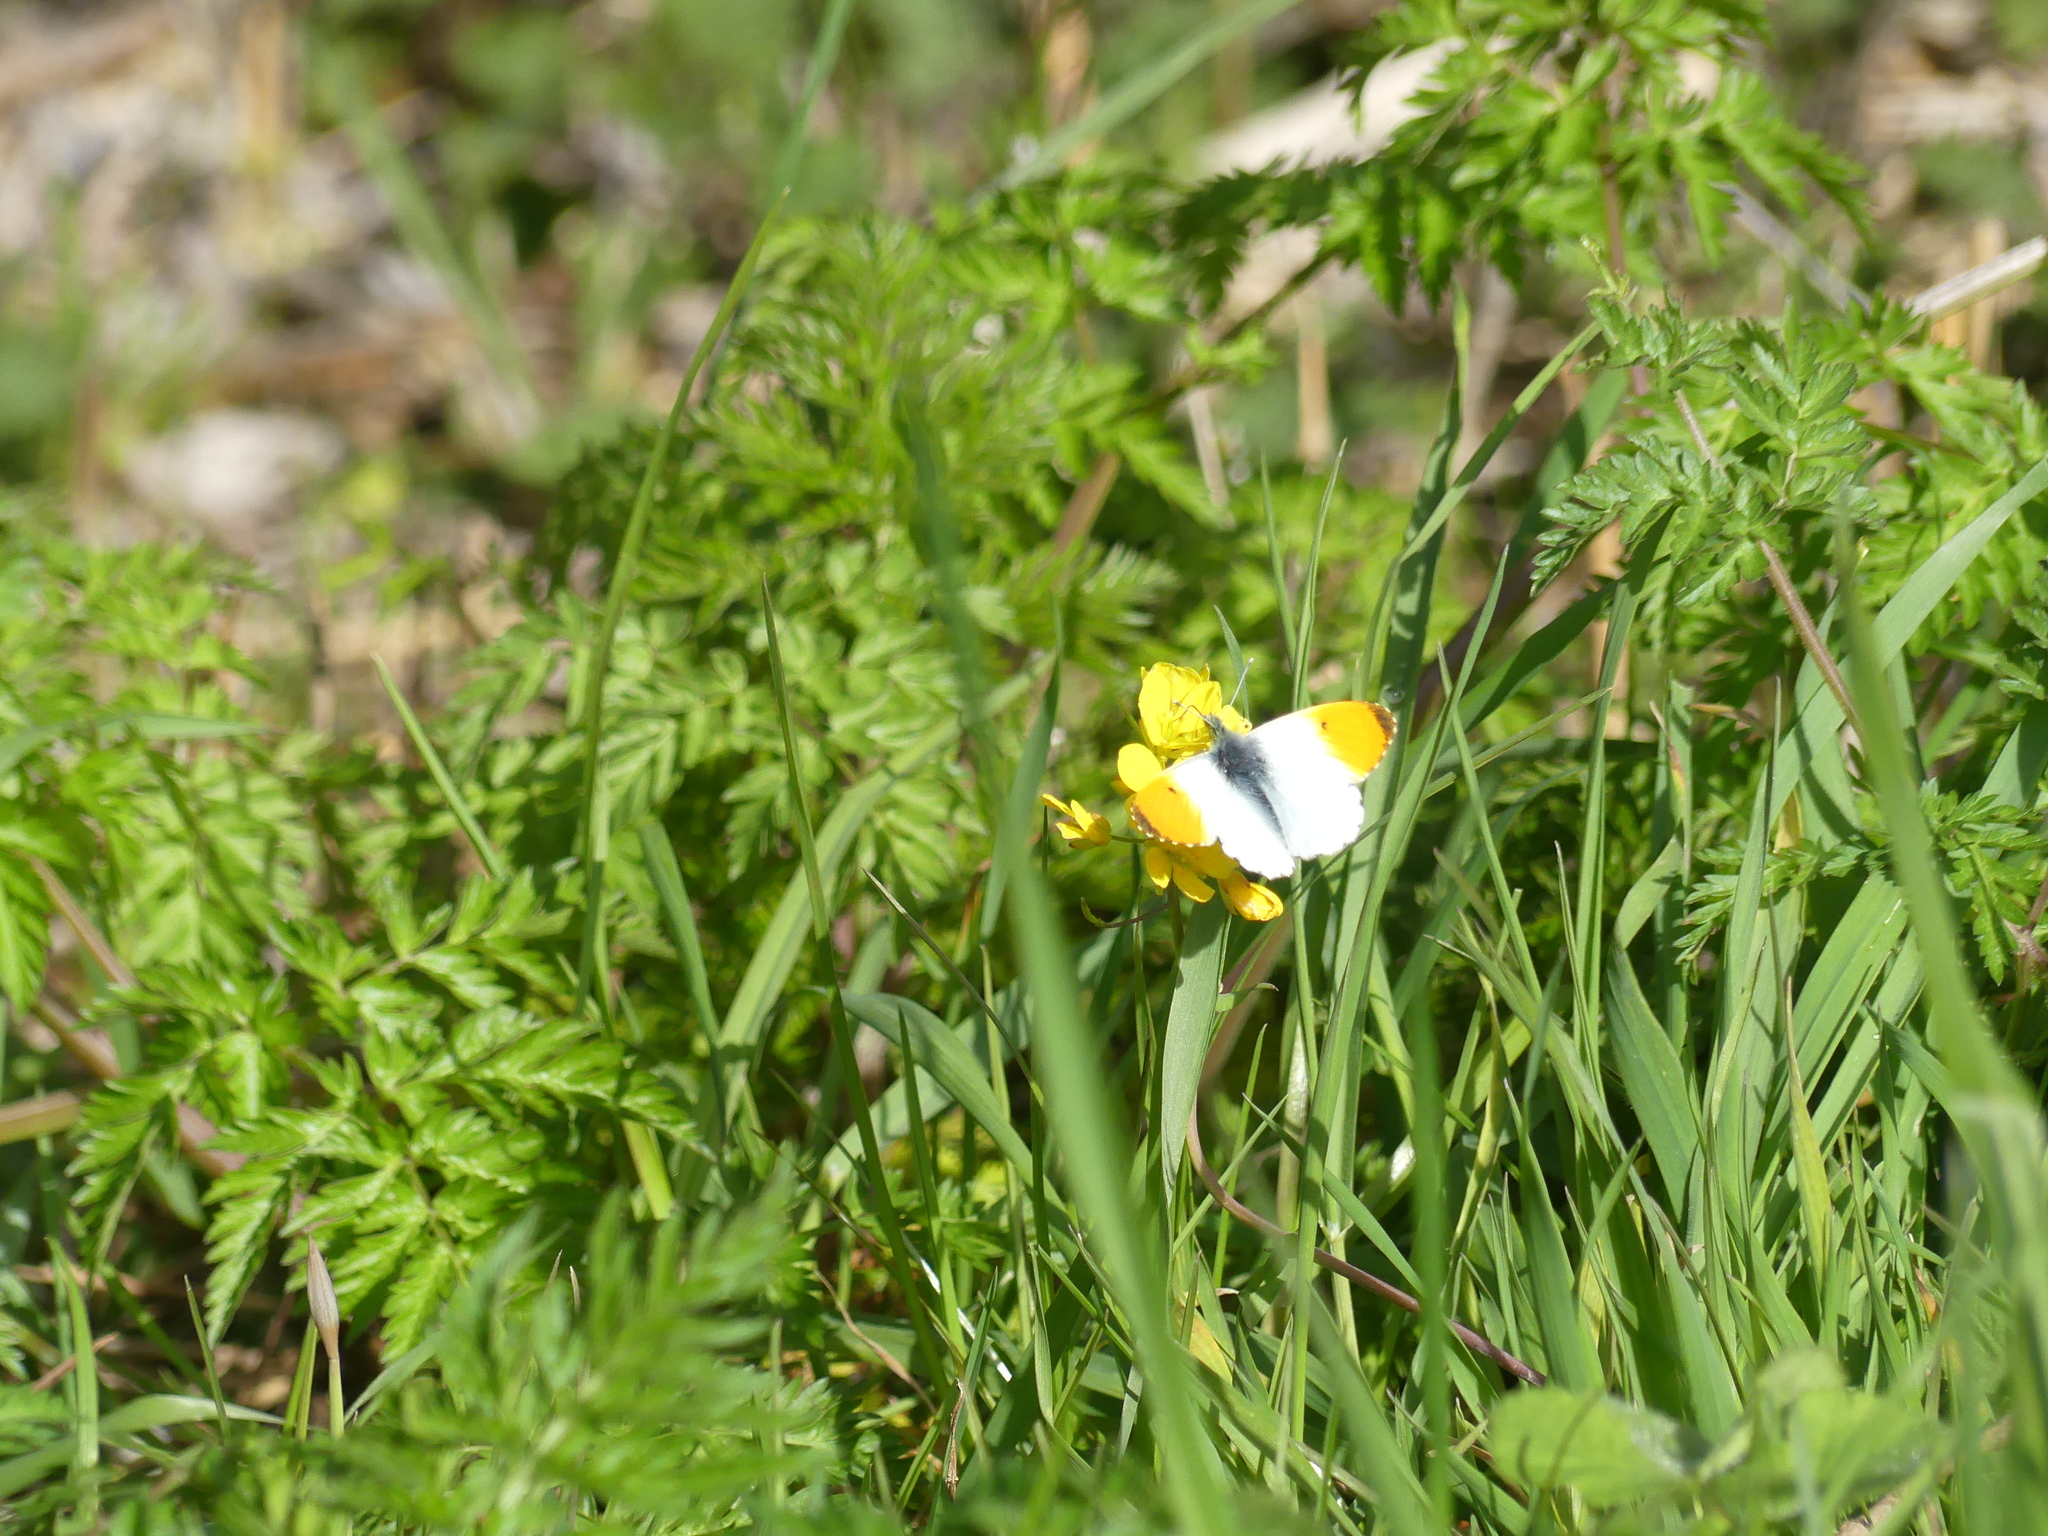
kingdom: Animalia
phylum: Arthropoda
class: Insecta
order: Lepidoptera
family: Pieridae
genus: Anthocharis
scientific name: Anthocharis cardamines
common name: Orange-tip
